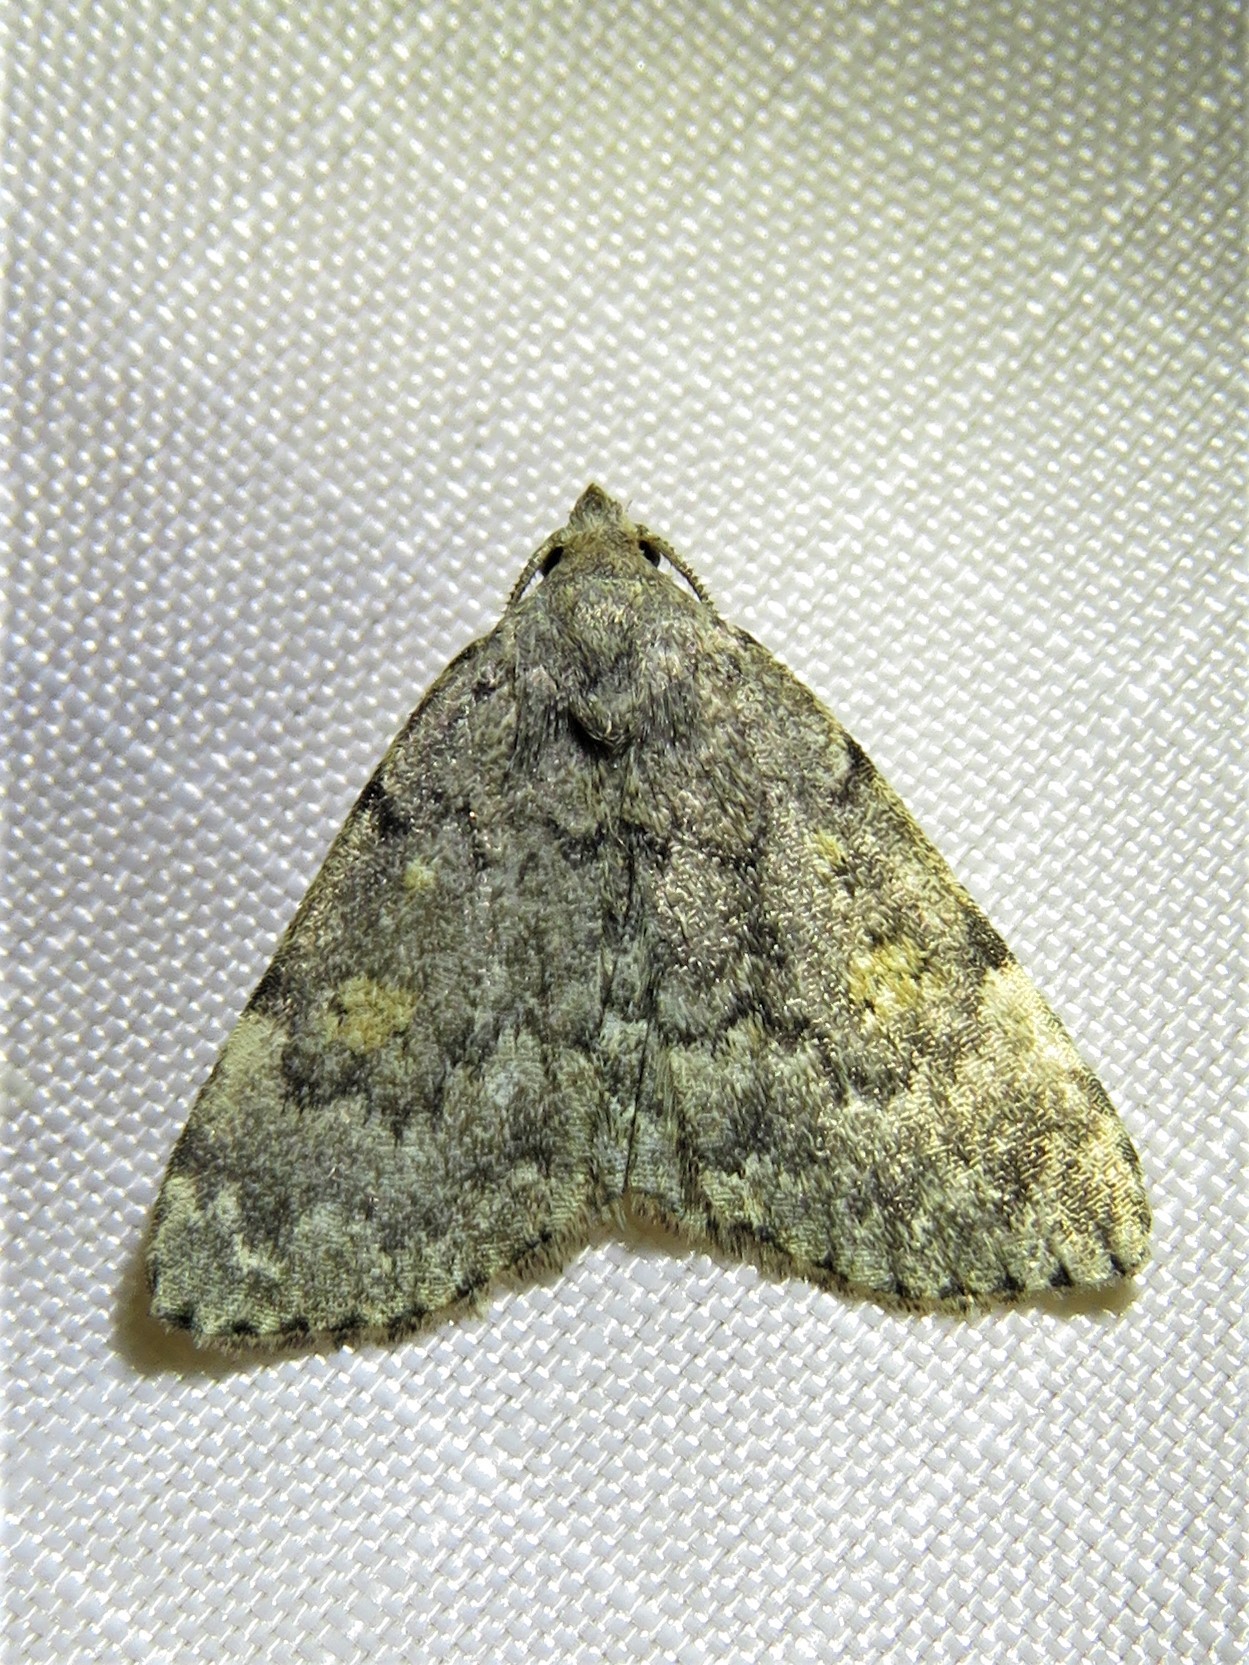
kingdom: Animalia
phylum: Arthropoda
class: Insecta
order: Lepidoptera
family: Erebidae
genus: Idia
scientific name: Idia aemula
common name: Common idia moth
